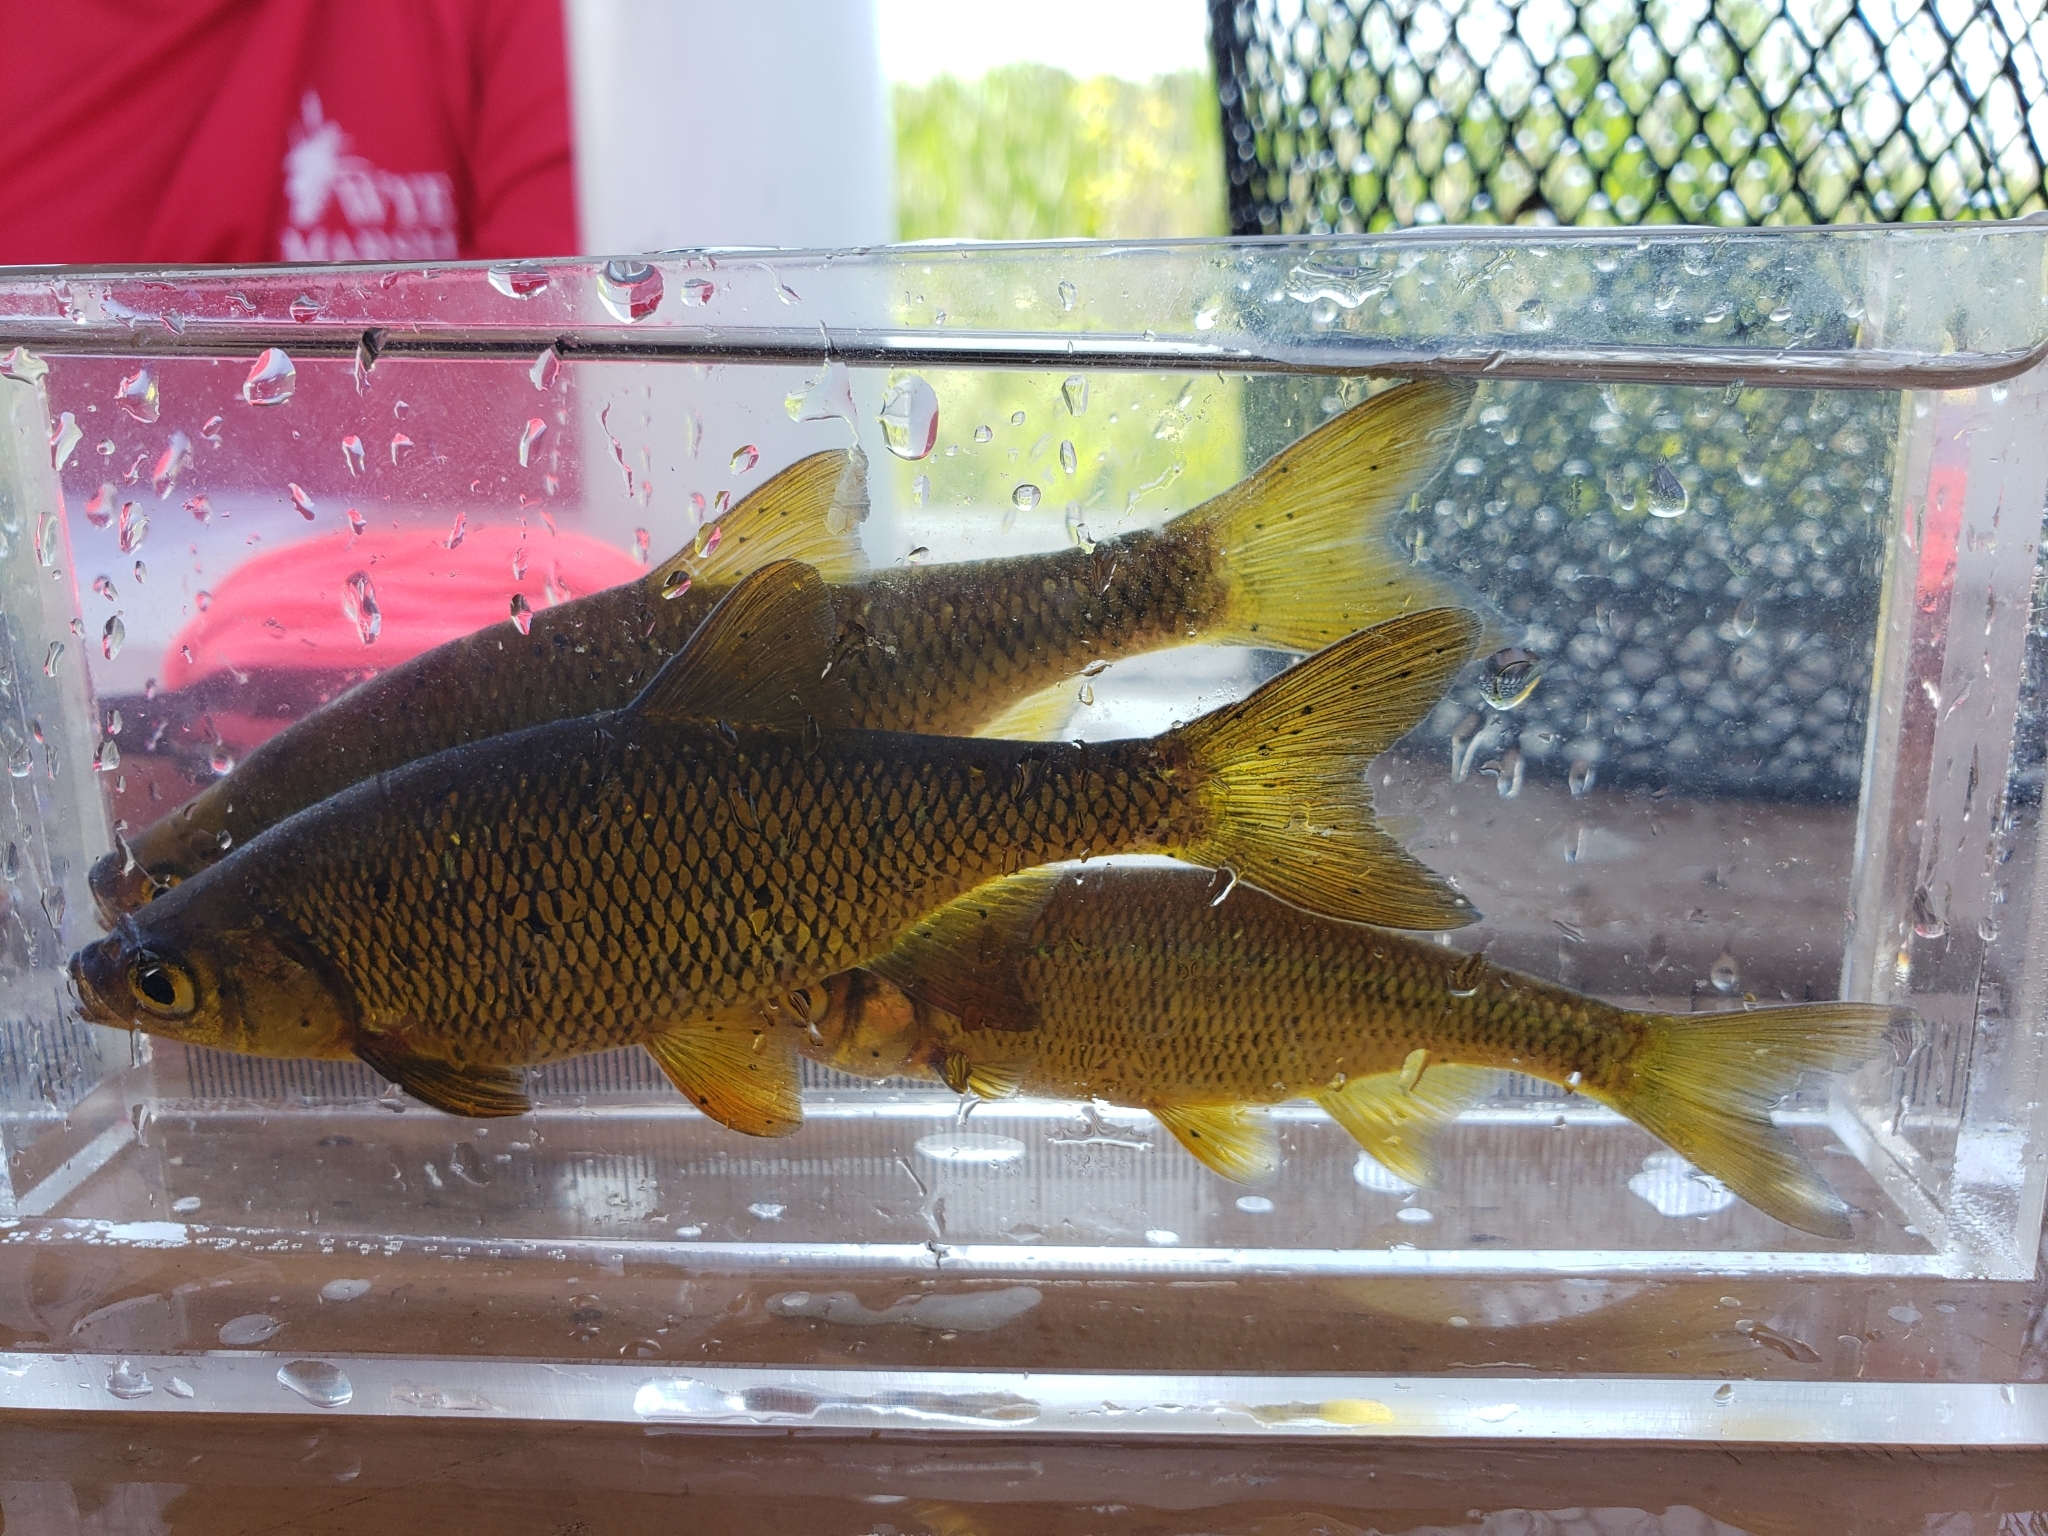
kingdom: Animalia
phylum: Chordata
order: Cypriniformes
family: Cyprinidae
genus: Notemigonus
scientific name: Notemigonus crysoleucas
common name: Golden shiner
